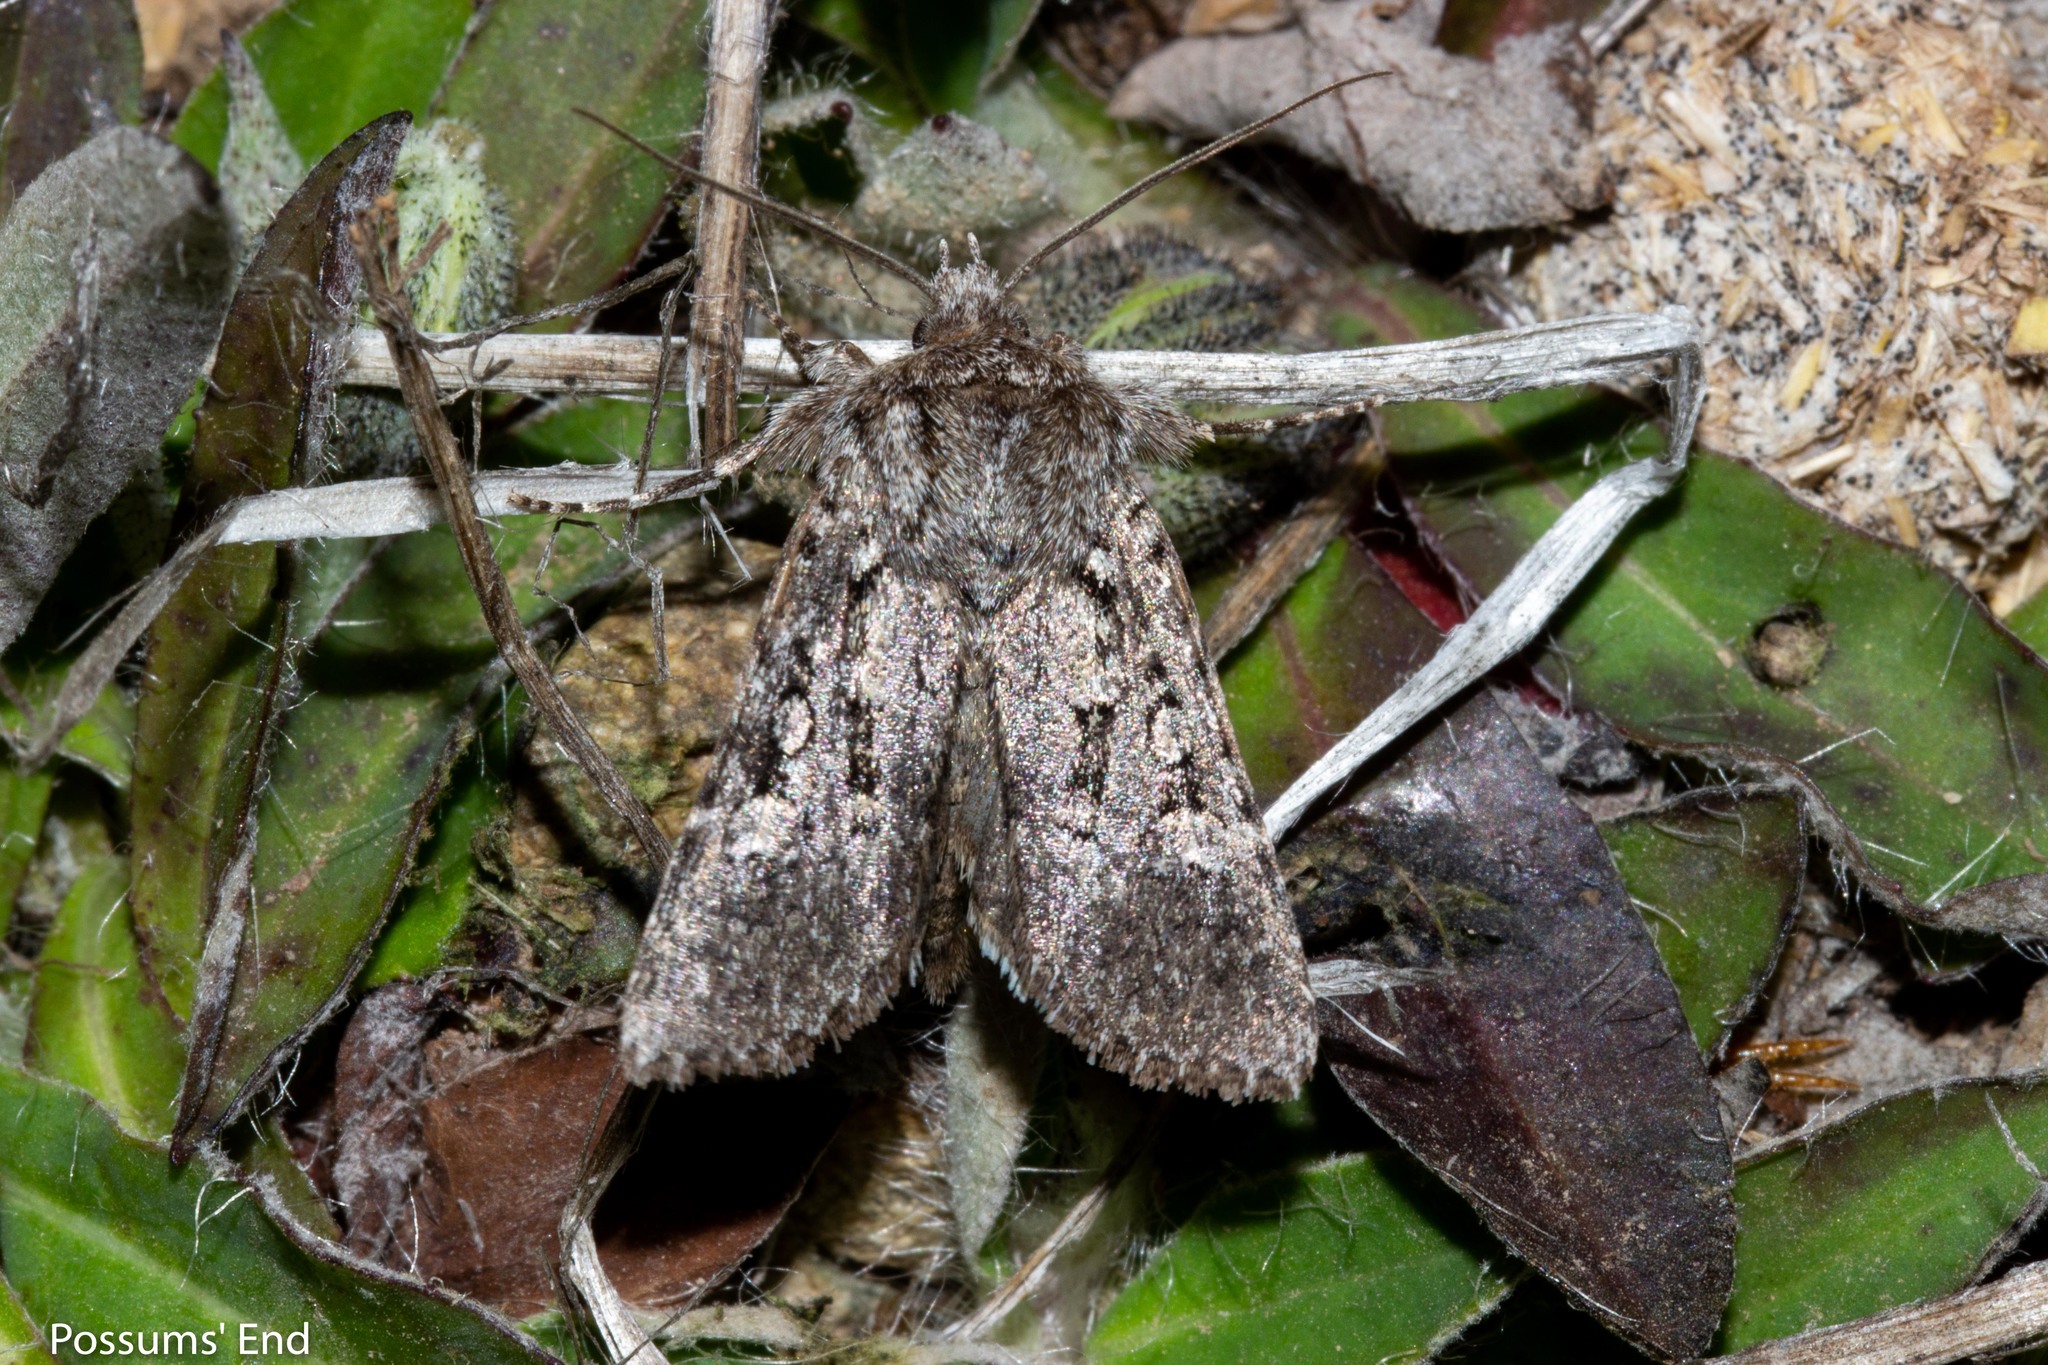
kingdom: Animalia
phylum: Arthropoda
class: Insecta
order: Lepidoptera
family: Noctuidae
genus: Physetica
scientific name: Physetica cucullina
